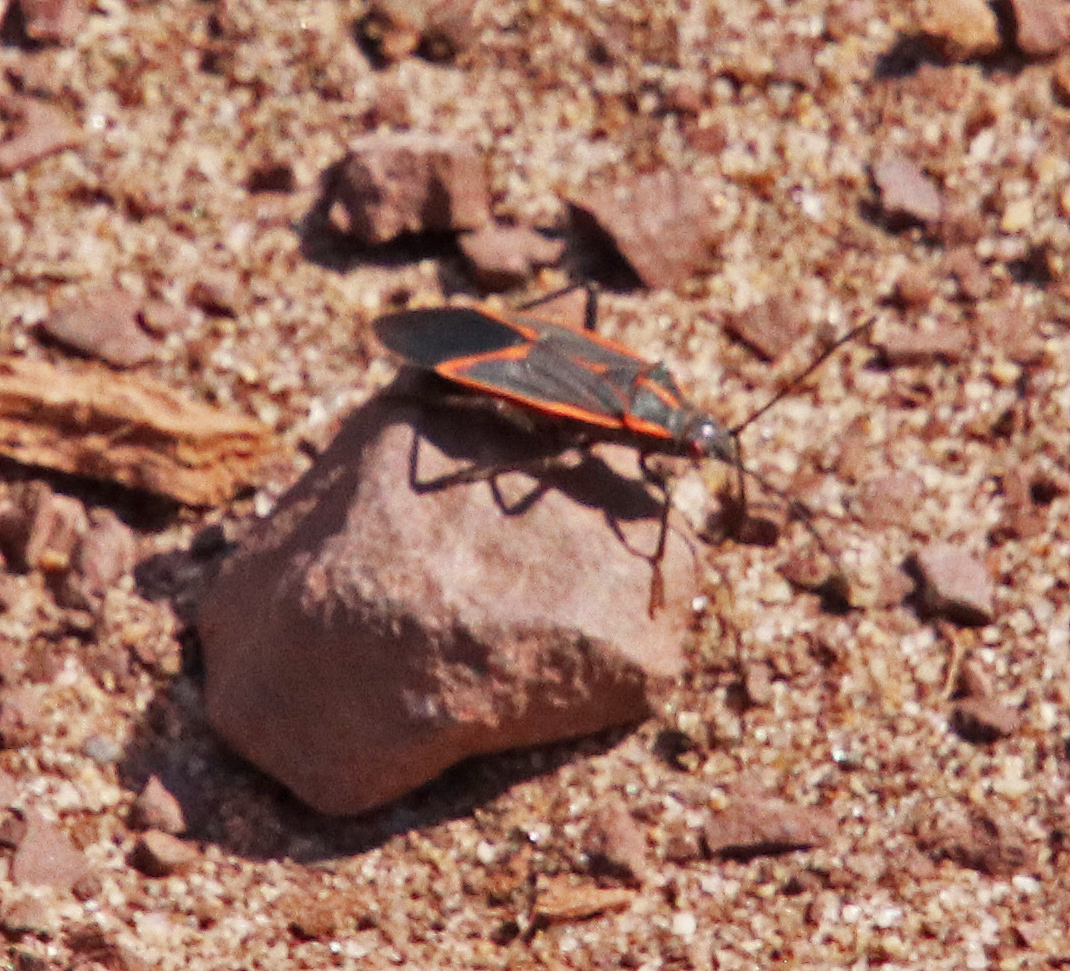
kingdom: Animalia
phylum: Arthropoda
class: Insecta
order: Hemiptera
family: Rhopalidae
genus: Boisea
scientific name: Boisea trivittata
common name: Boxelder bug
